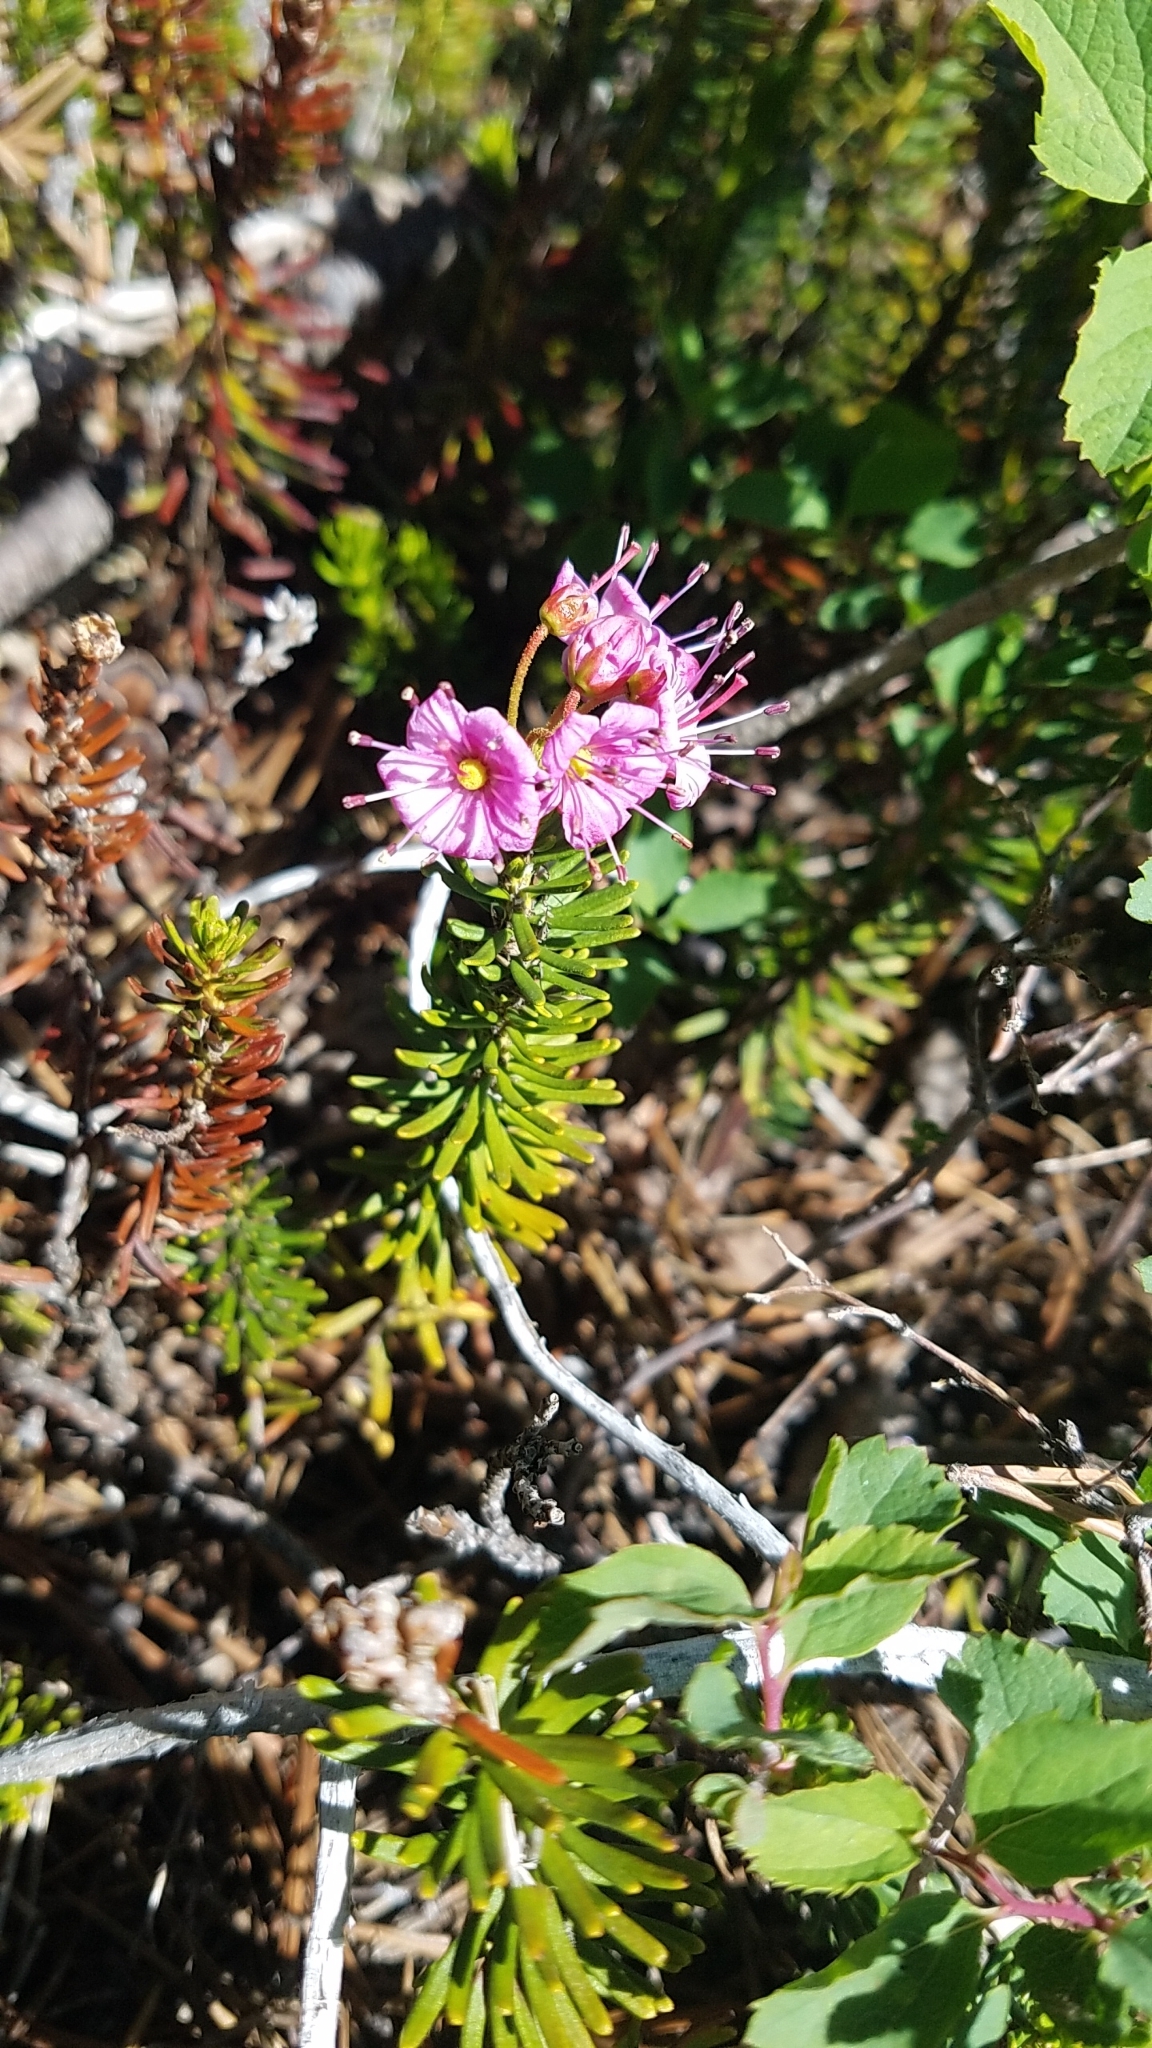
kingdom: Plantae
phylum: Tracheophyta
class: Magnoliopsida
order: Ericales
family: Ericaceae
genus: Phyllodoce
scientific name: Phyllodoce breweri
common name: Brewer's mountain-heather
